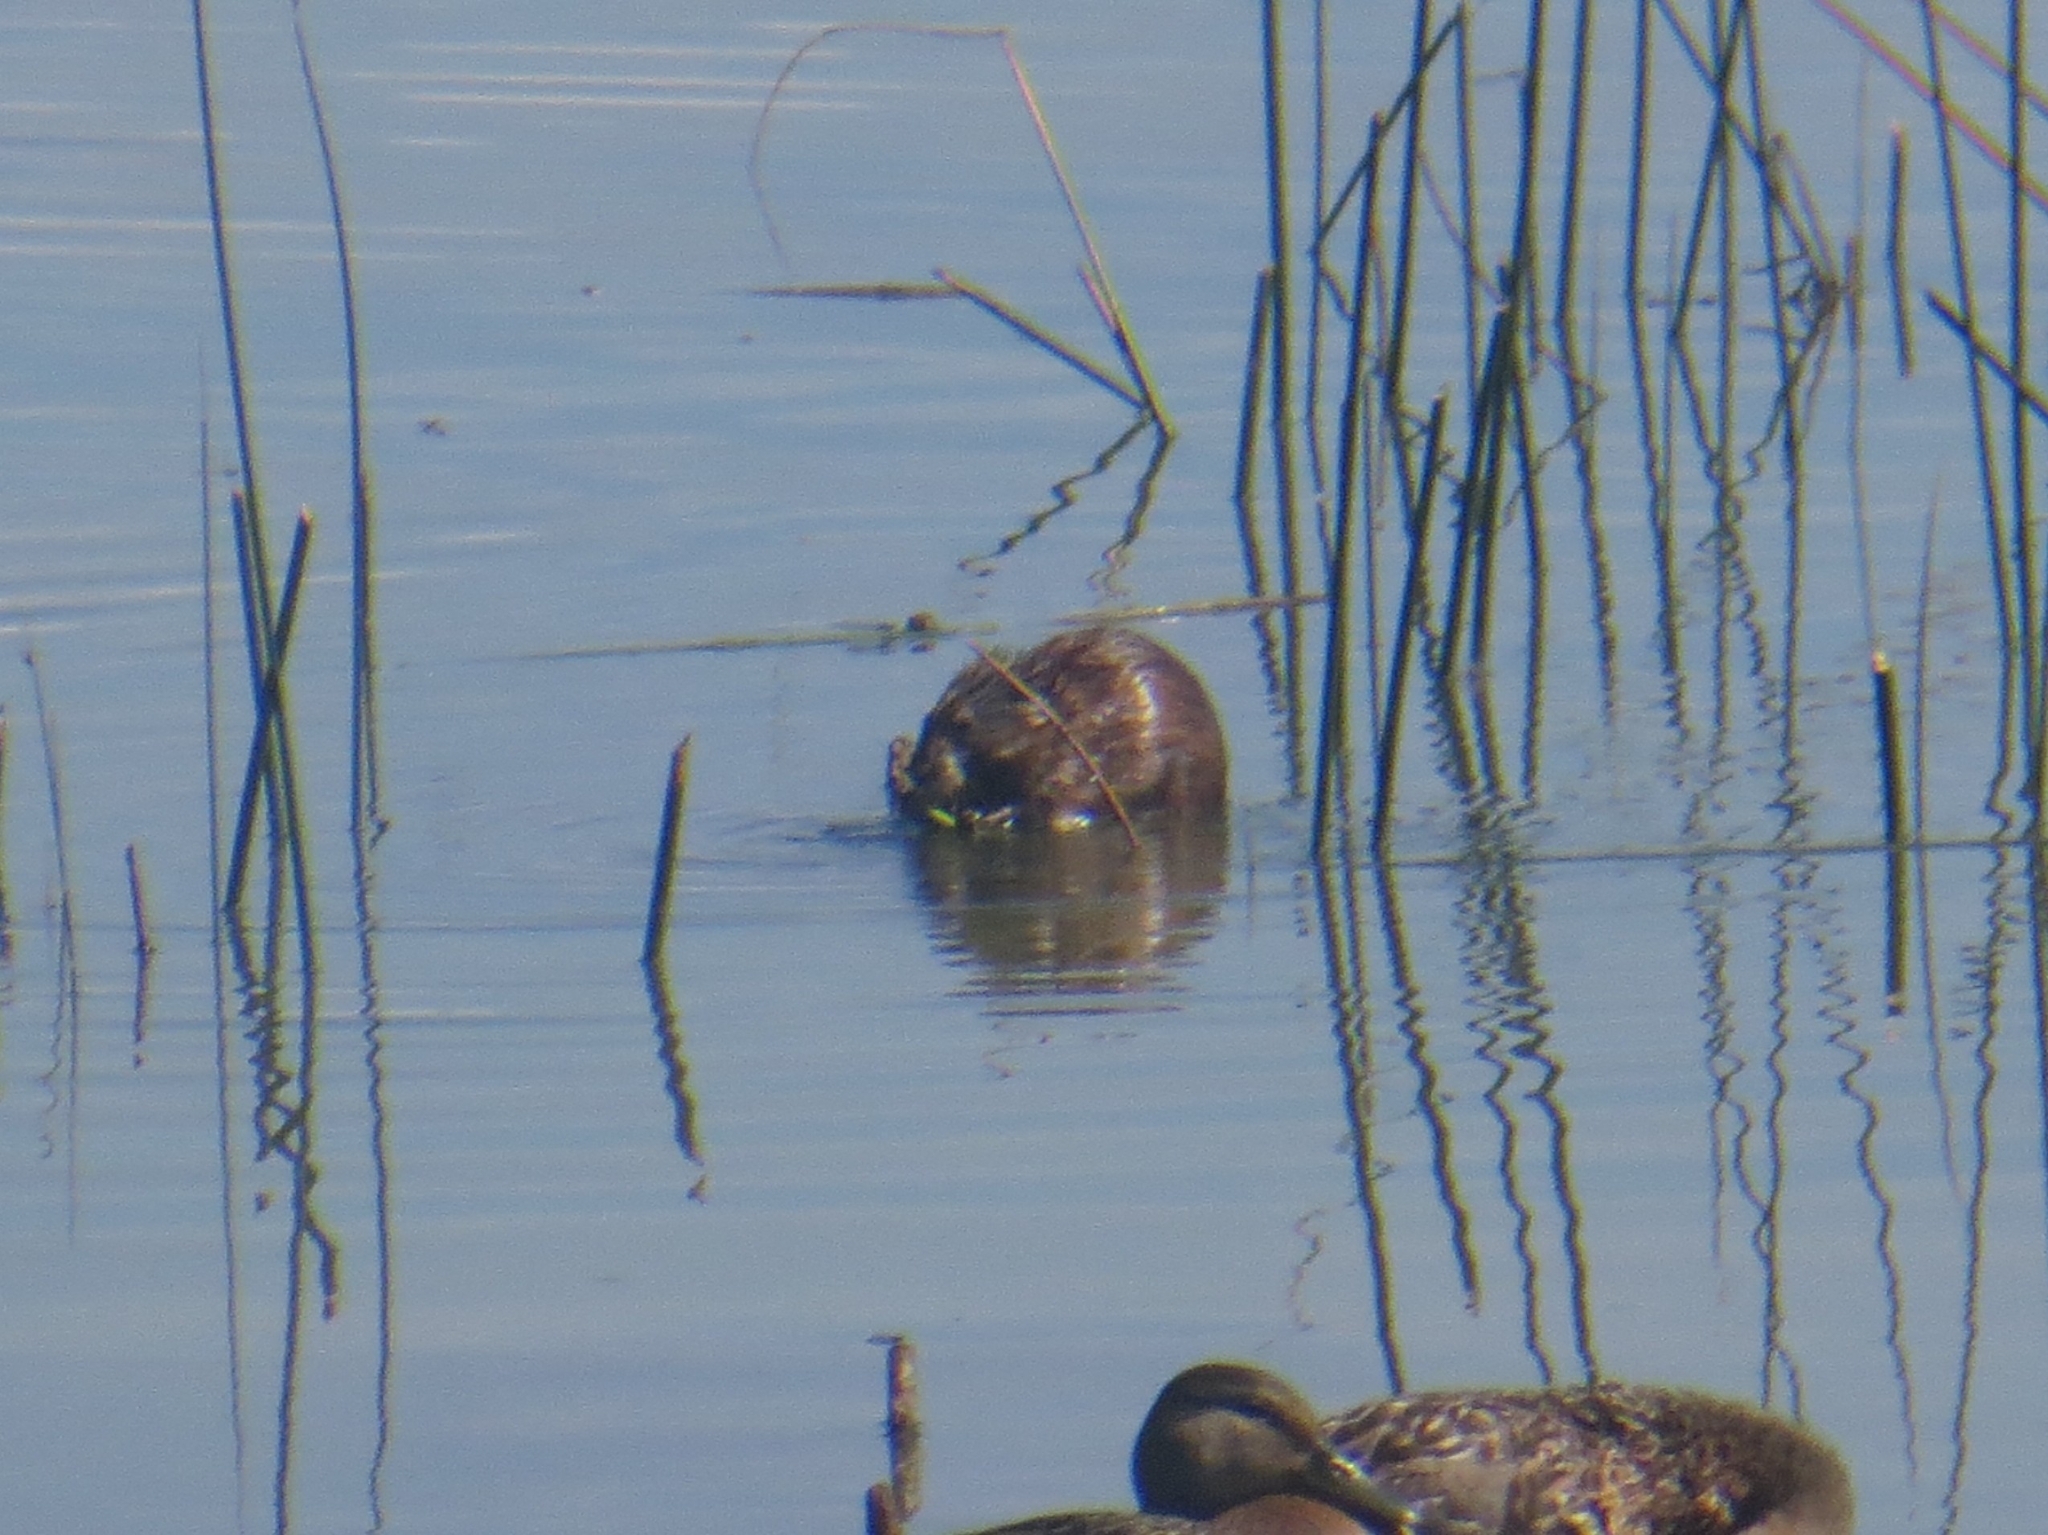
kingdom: Animalia
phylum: Chordata
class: Mammalia
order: Rodentia
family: Cricetidae
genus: Ondatra
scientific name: Ondatra zibethicus
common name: Muskrat
